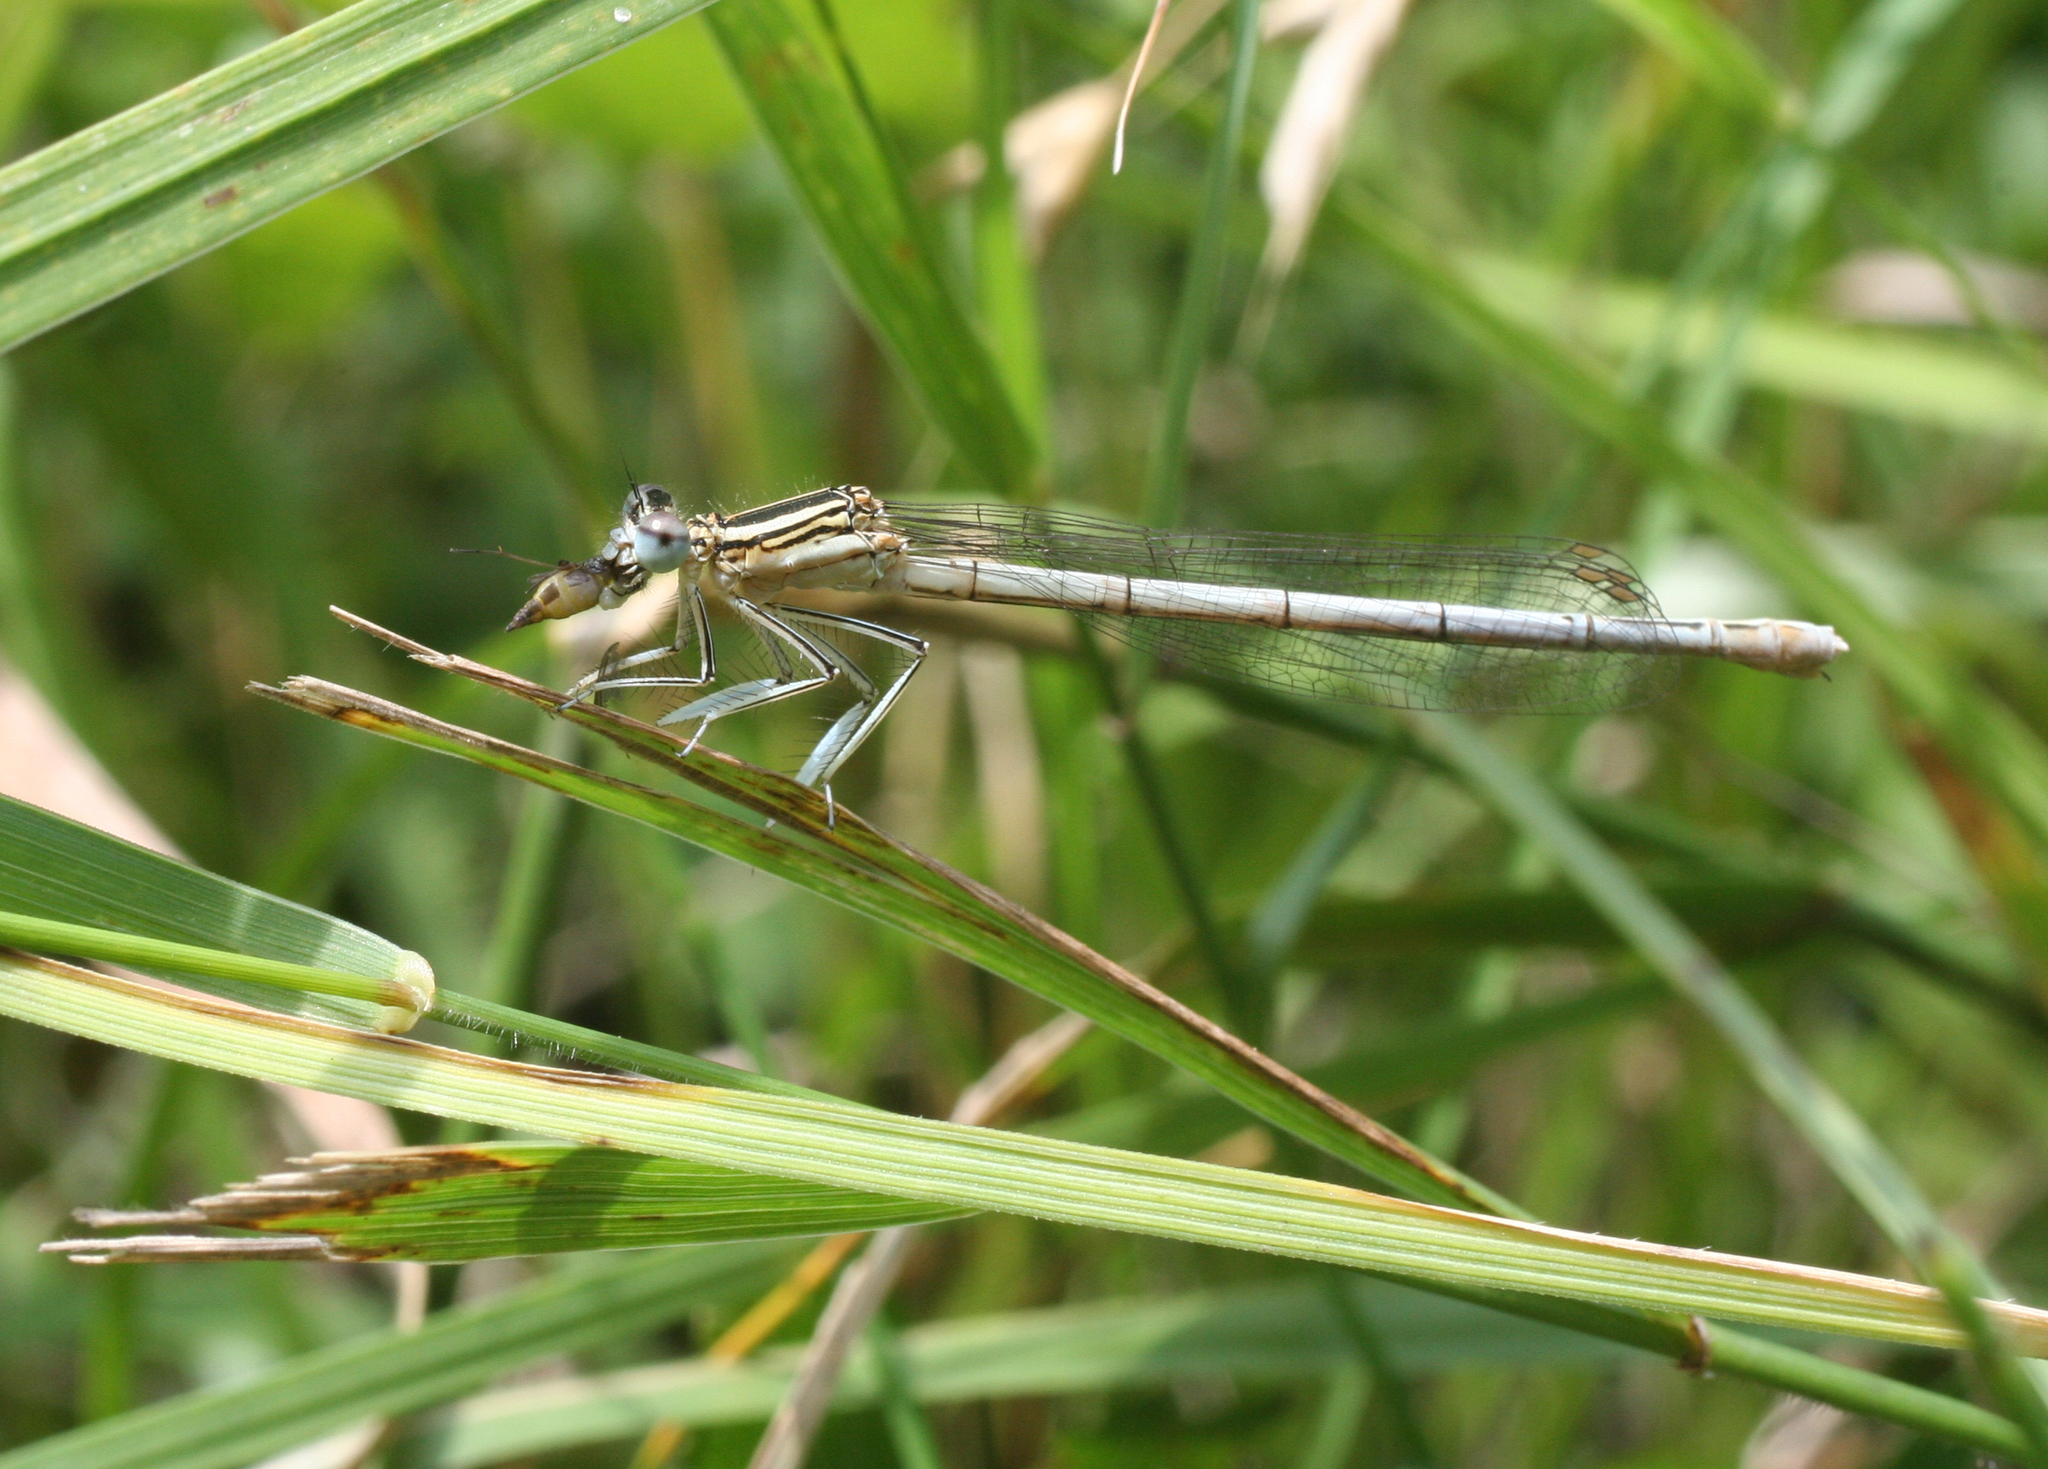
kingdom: Animalia
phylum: Arthropoda
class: Insecta
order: Odonata
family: Platycnemididae
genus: Platycnemis
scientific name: Platycnemis pennipes
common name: White-legged damselfly
